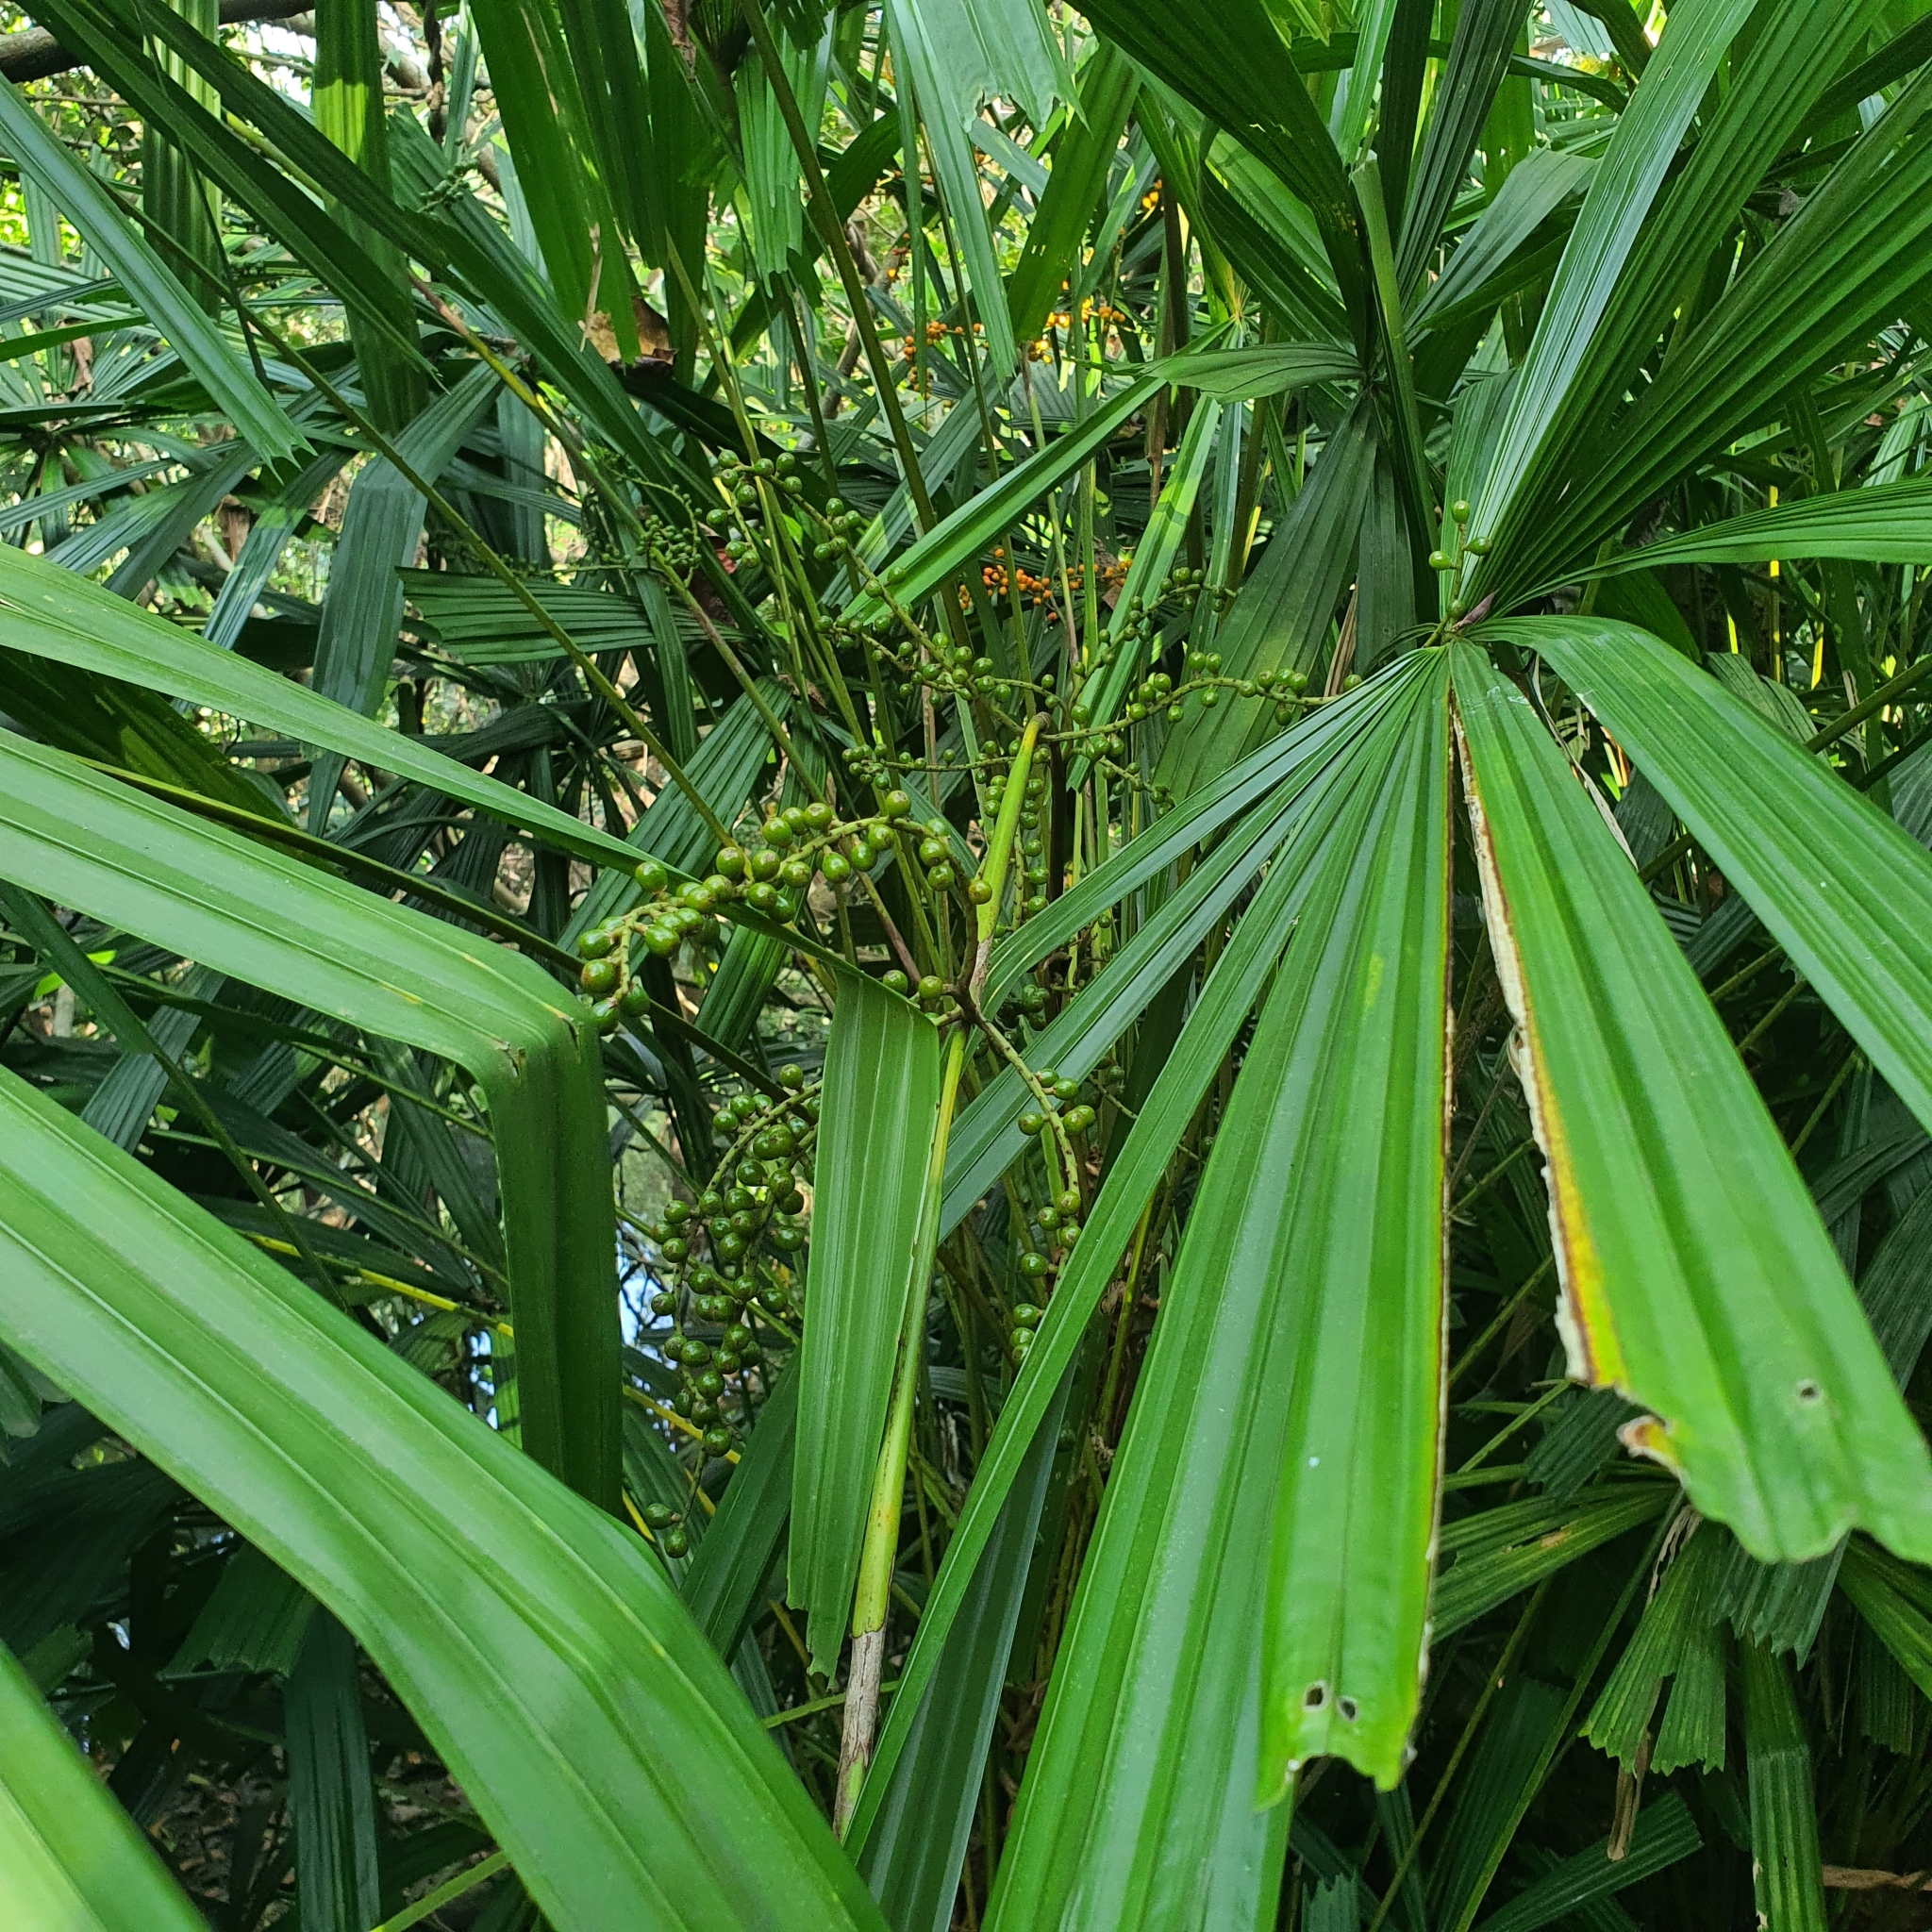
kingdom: Plantae
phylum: Tracheophyta
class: Liliopsida
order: Arecales
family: Arecaceae
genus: Licuala
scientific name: Licuala spinosa
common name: Mangrove fan palm
